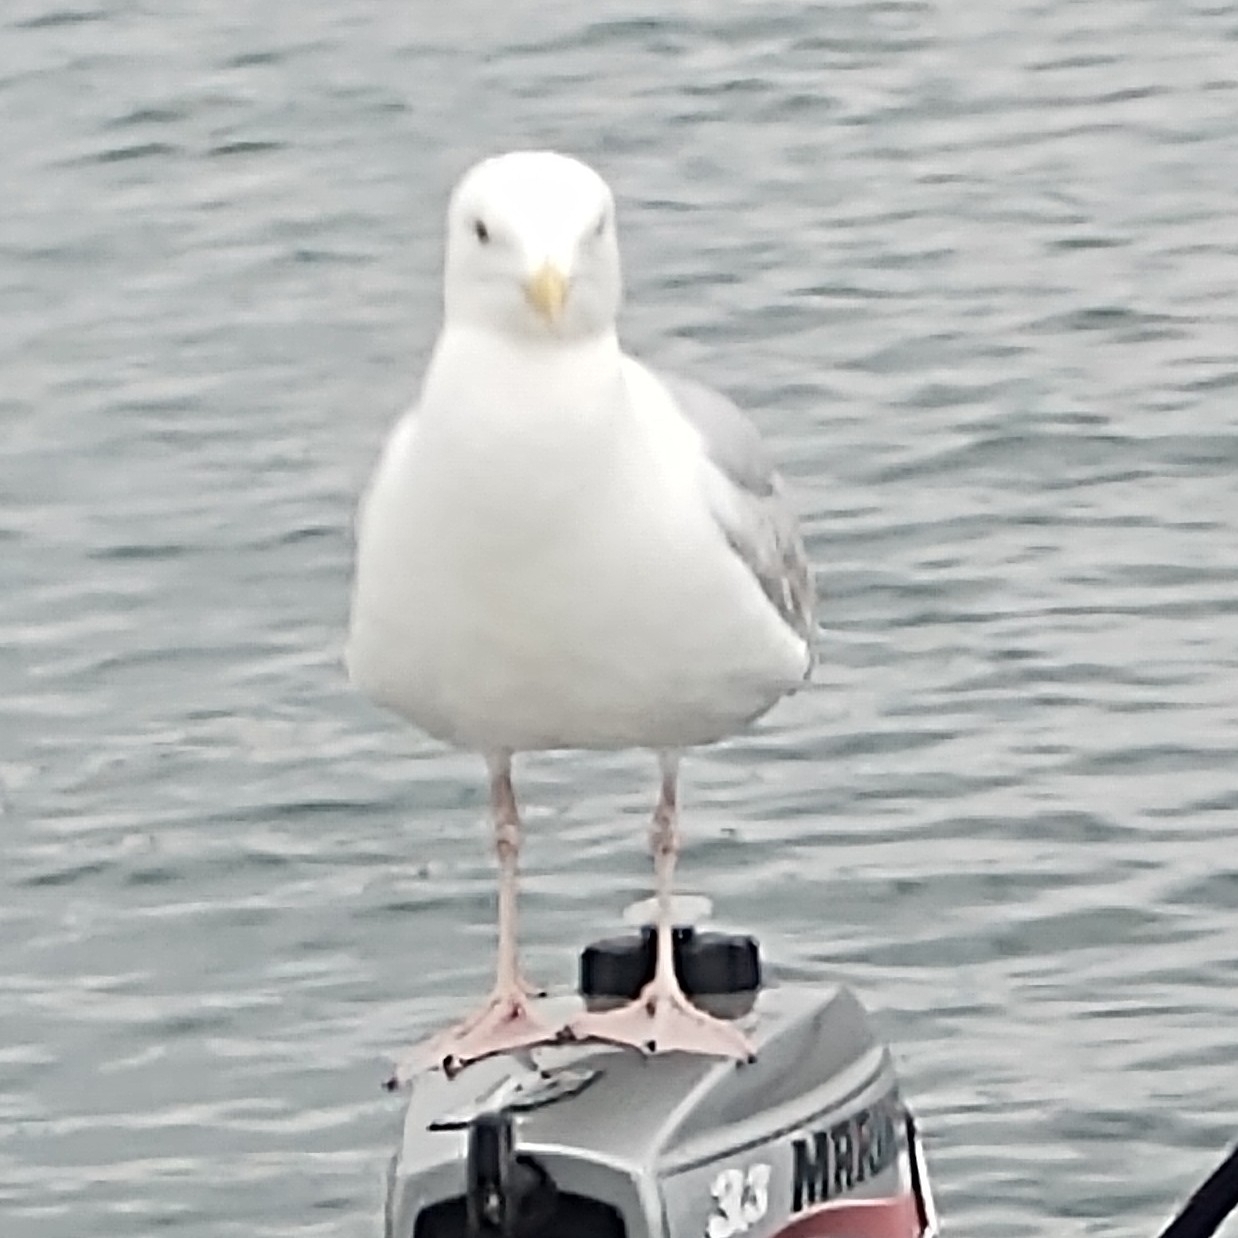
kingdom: Animalia
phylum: Chordata
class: Aves
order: Charadriiformes
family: Laridae
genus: Larus
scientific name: Larus argentatus
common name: Herring gull
